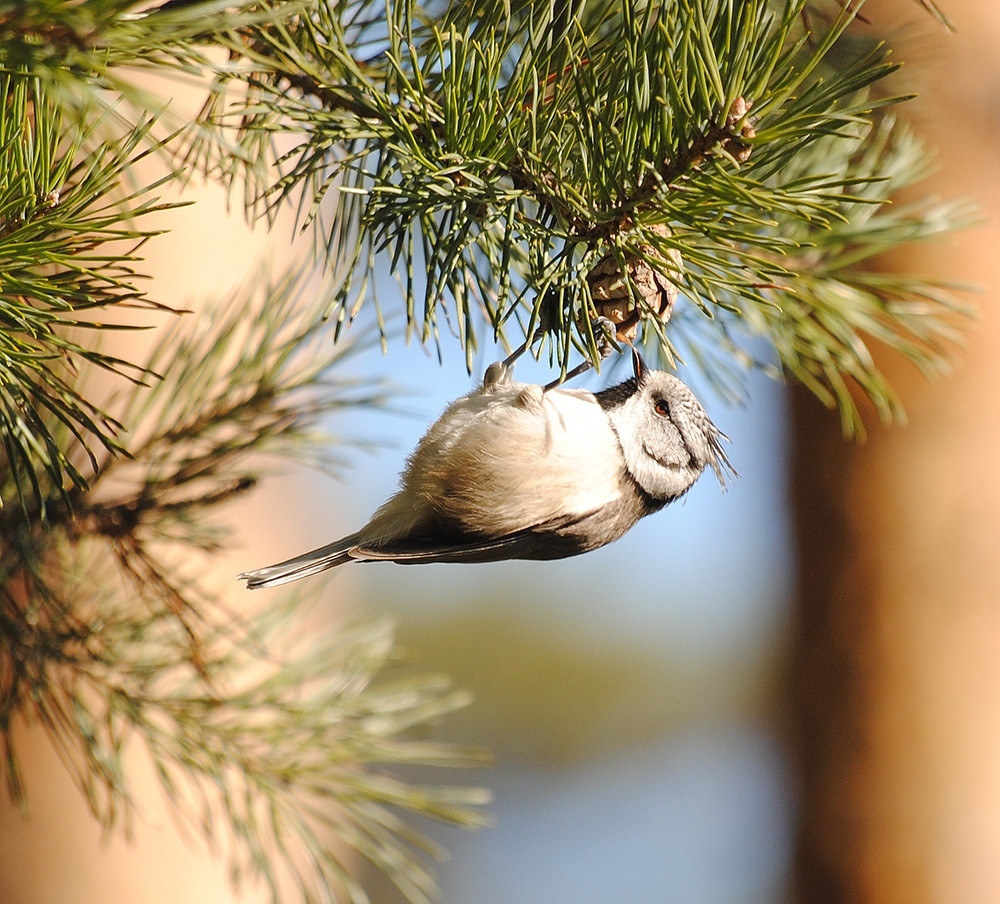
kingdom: Animalia
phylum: Chordata
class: Aves
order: Passeriformes
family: Paridae
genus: Lophophanes
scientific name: Lophophanes cristatus
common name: European crested tit
